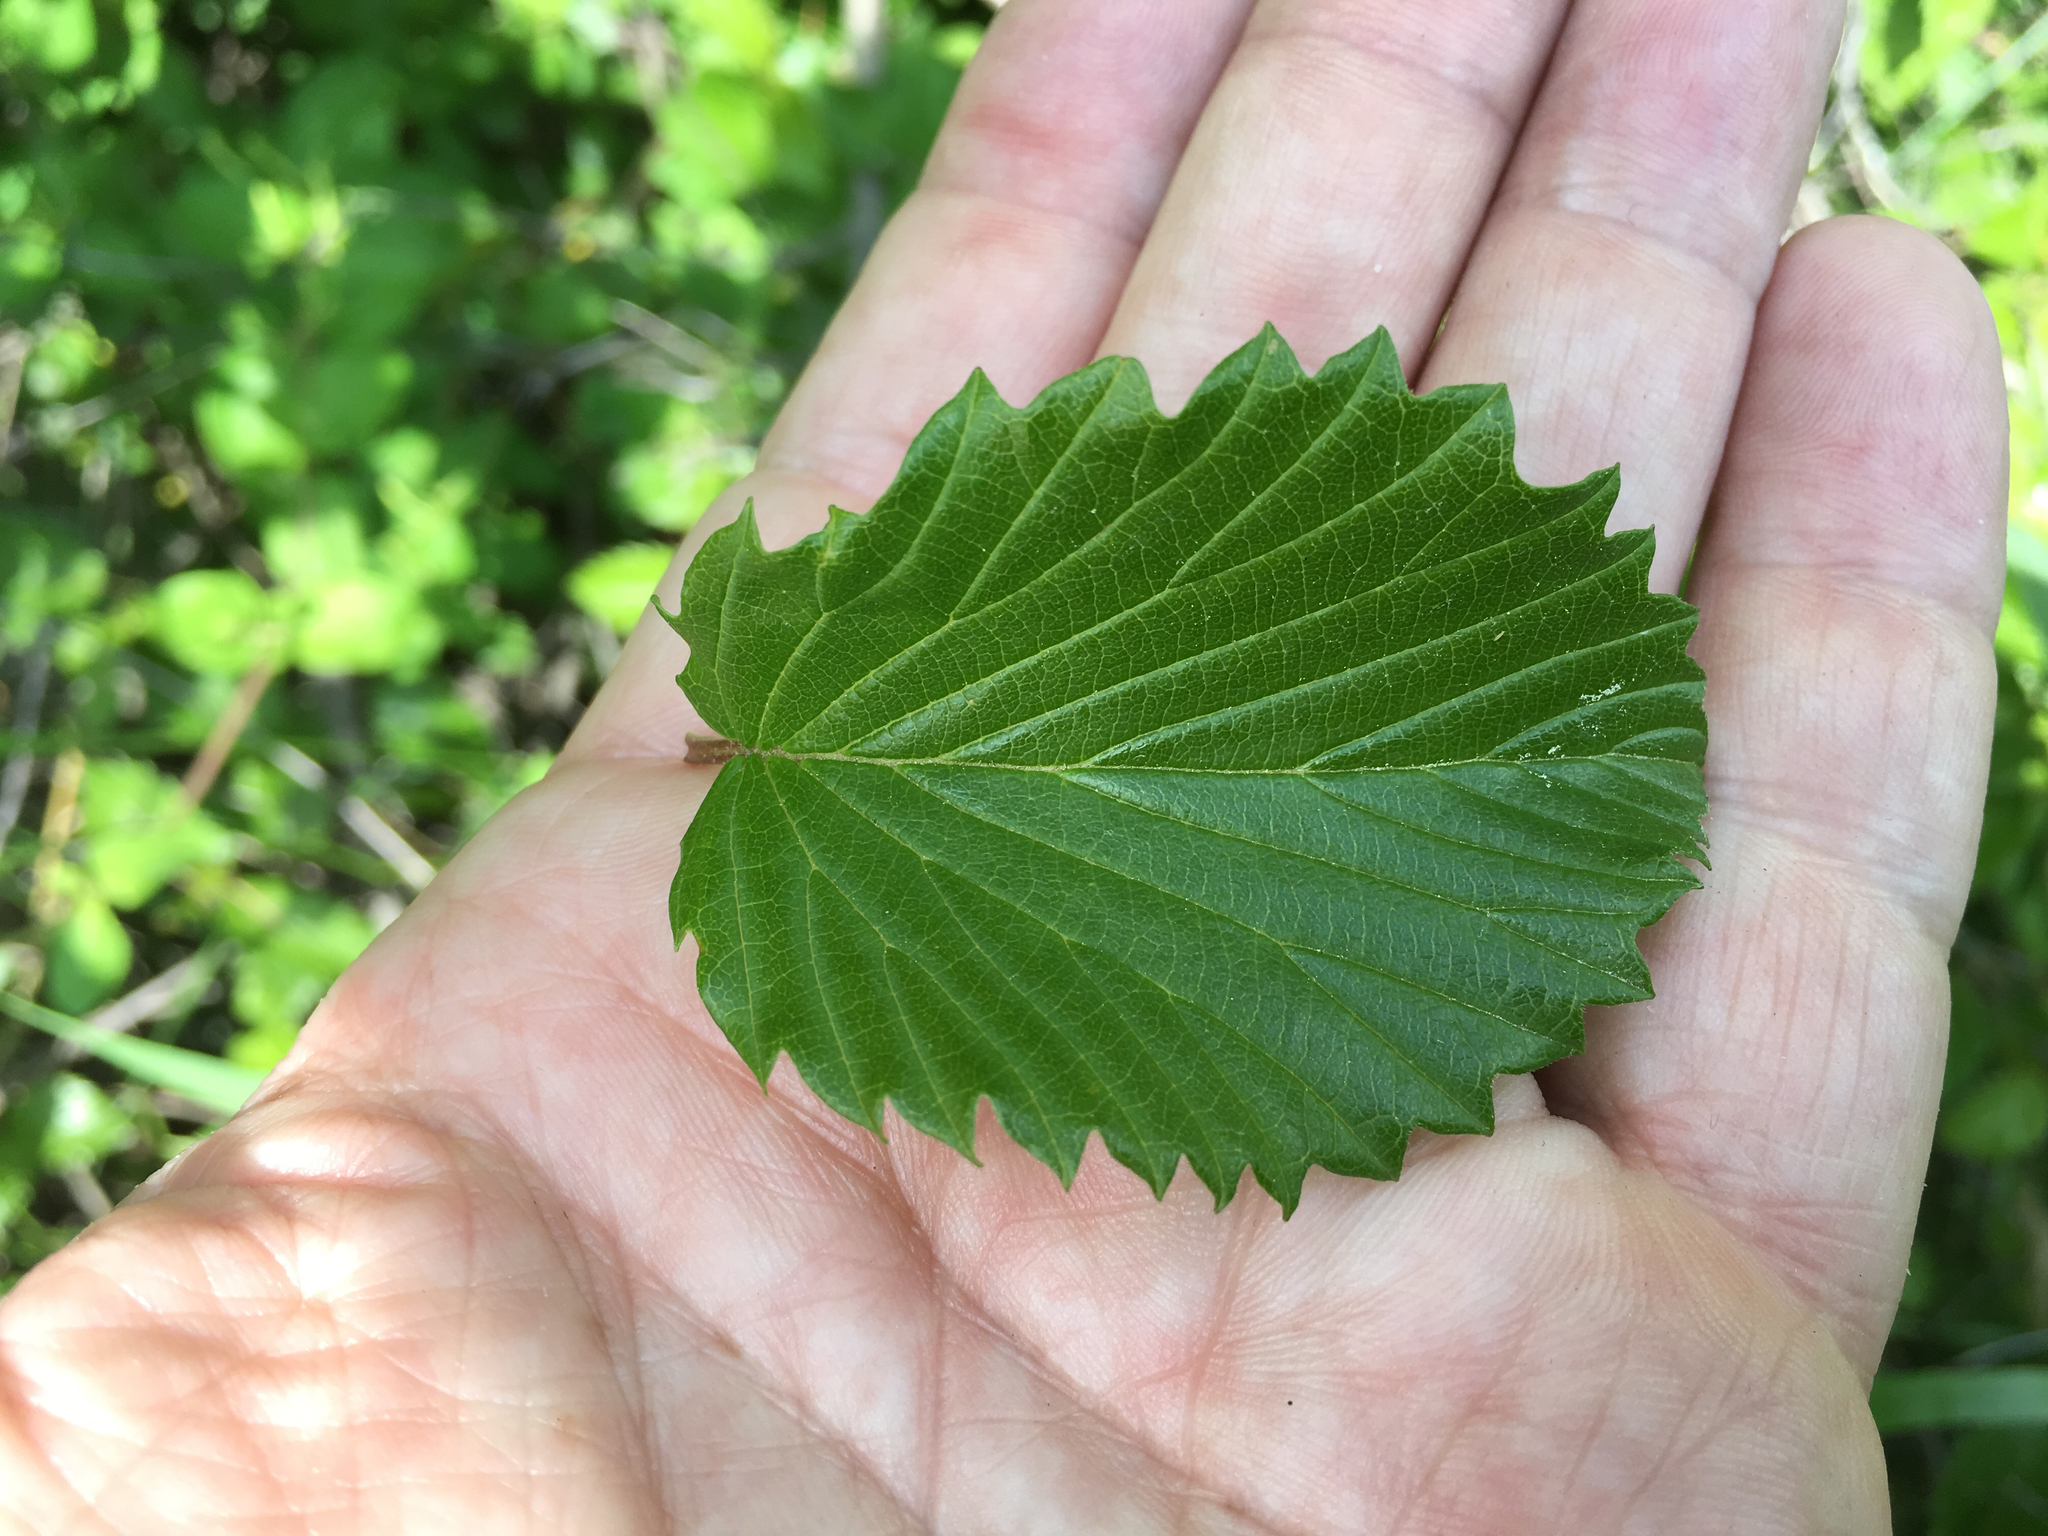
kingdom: Plantae
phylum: Tracheophyta
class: Magnoliopsida
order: Dipsacales
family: Viburnaceae
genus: Viburnum
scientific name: Viburnum recognitum
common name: Northern arrow-wood
